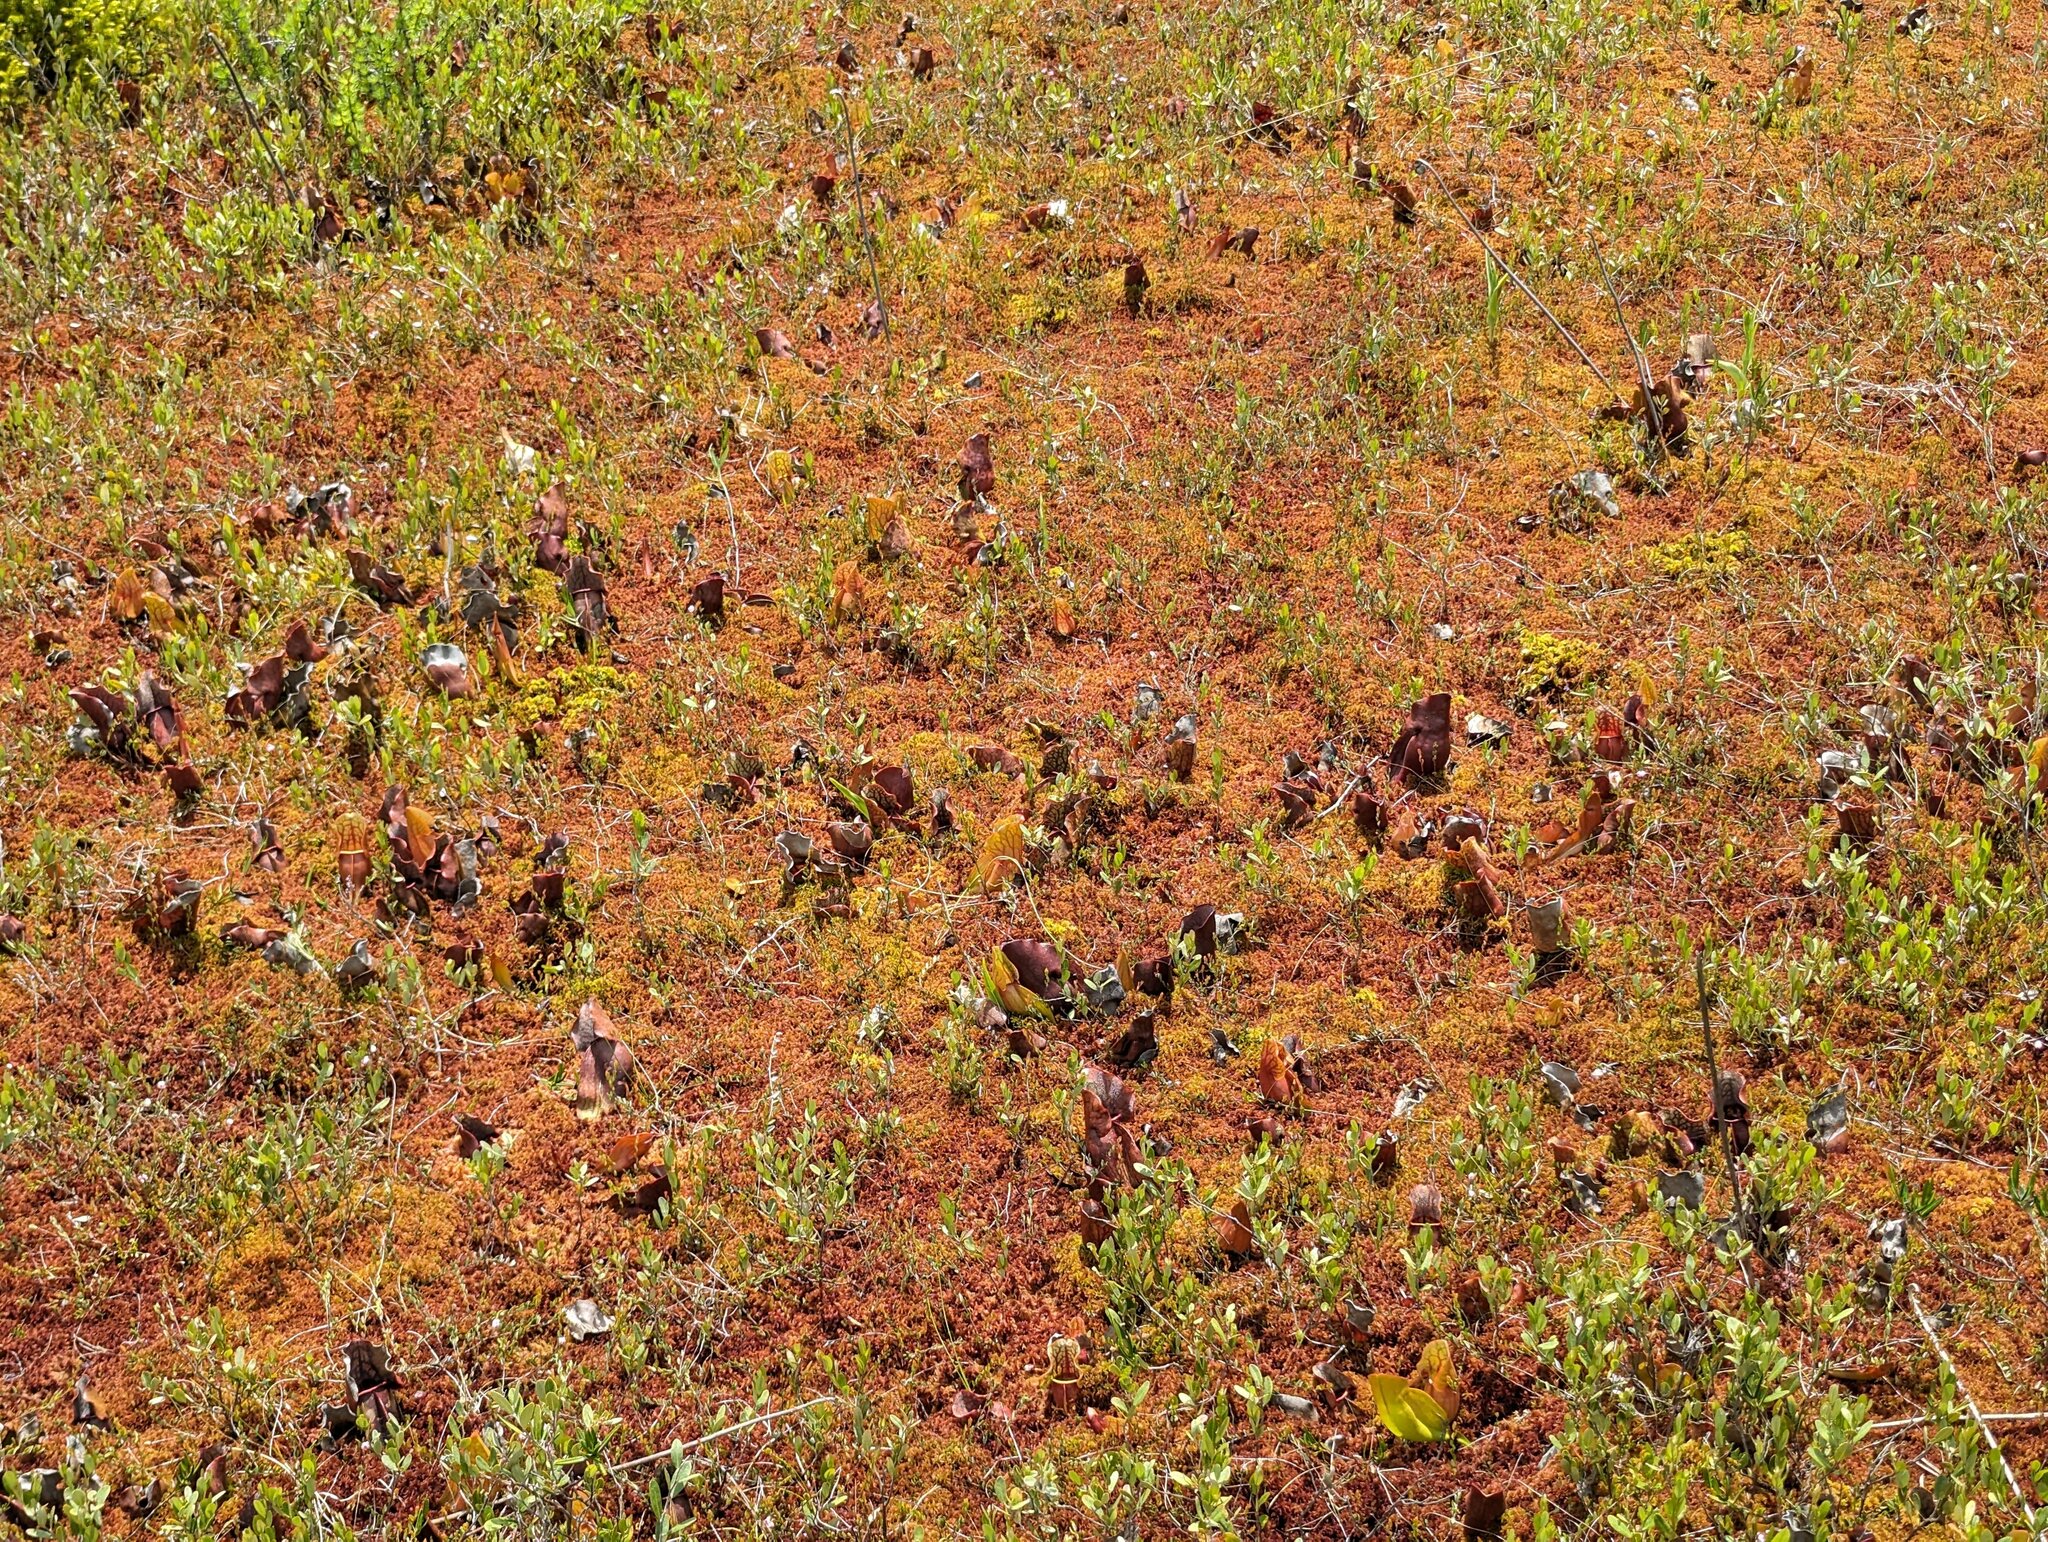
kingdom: Plantae
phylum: Tracheophyta
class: Magnoliopsida
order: Ericales
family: Sarraceniaceae
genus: Sarracenia
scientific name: Sarracenia purpurea
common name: Pitcherplant
